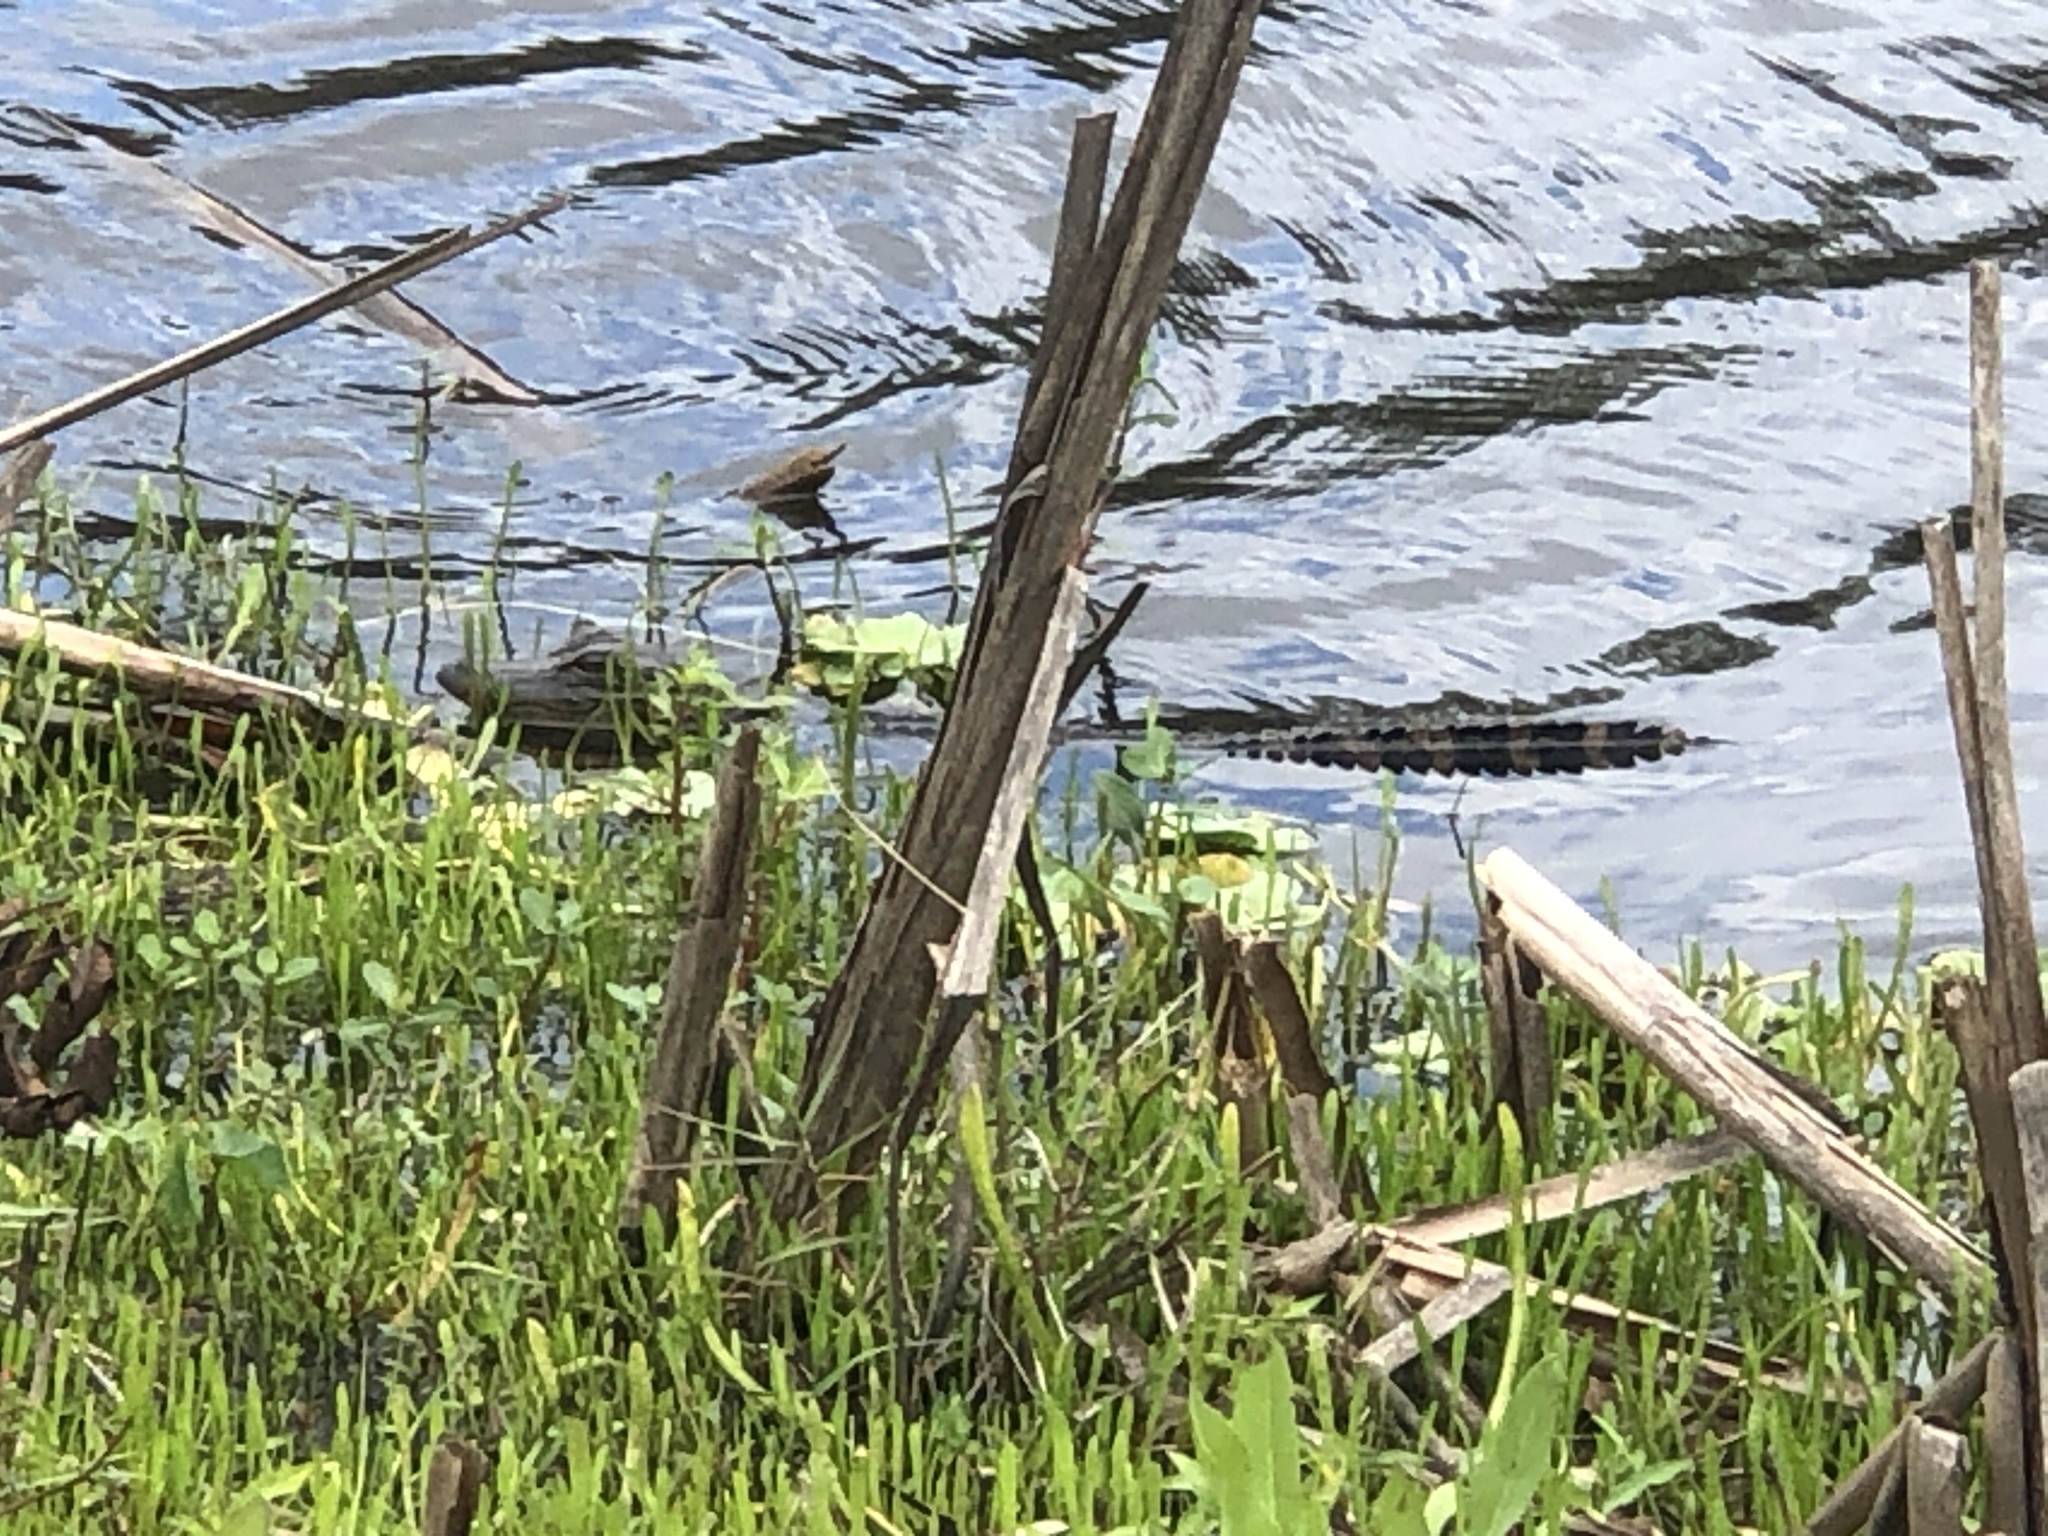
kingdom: Animalia
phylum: Chordata
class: Crocodylia
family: Alligatoridae
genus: Alligator
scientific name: Alligator mississippiensis
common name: American alligator
